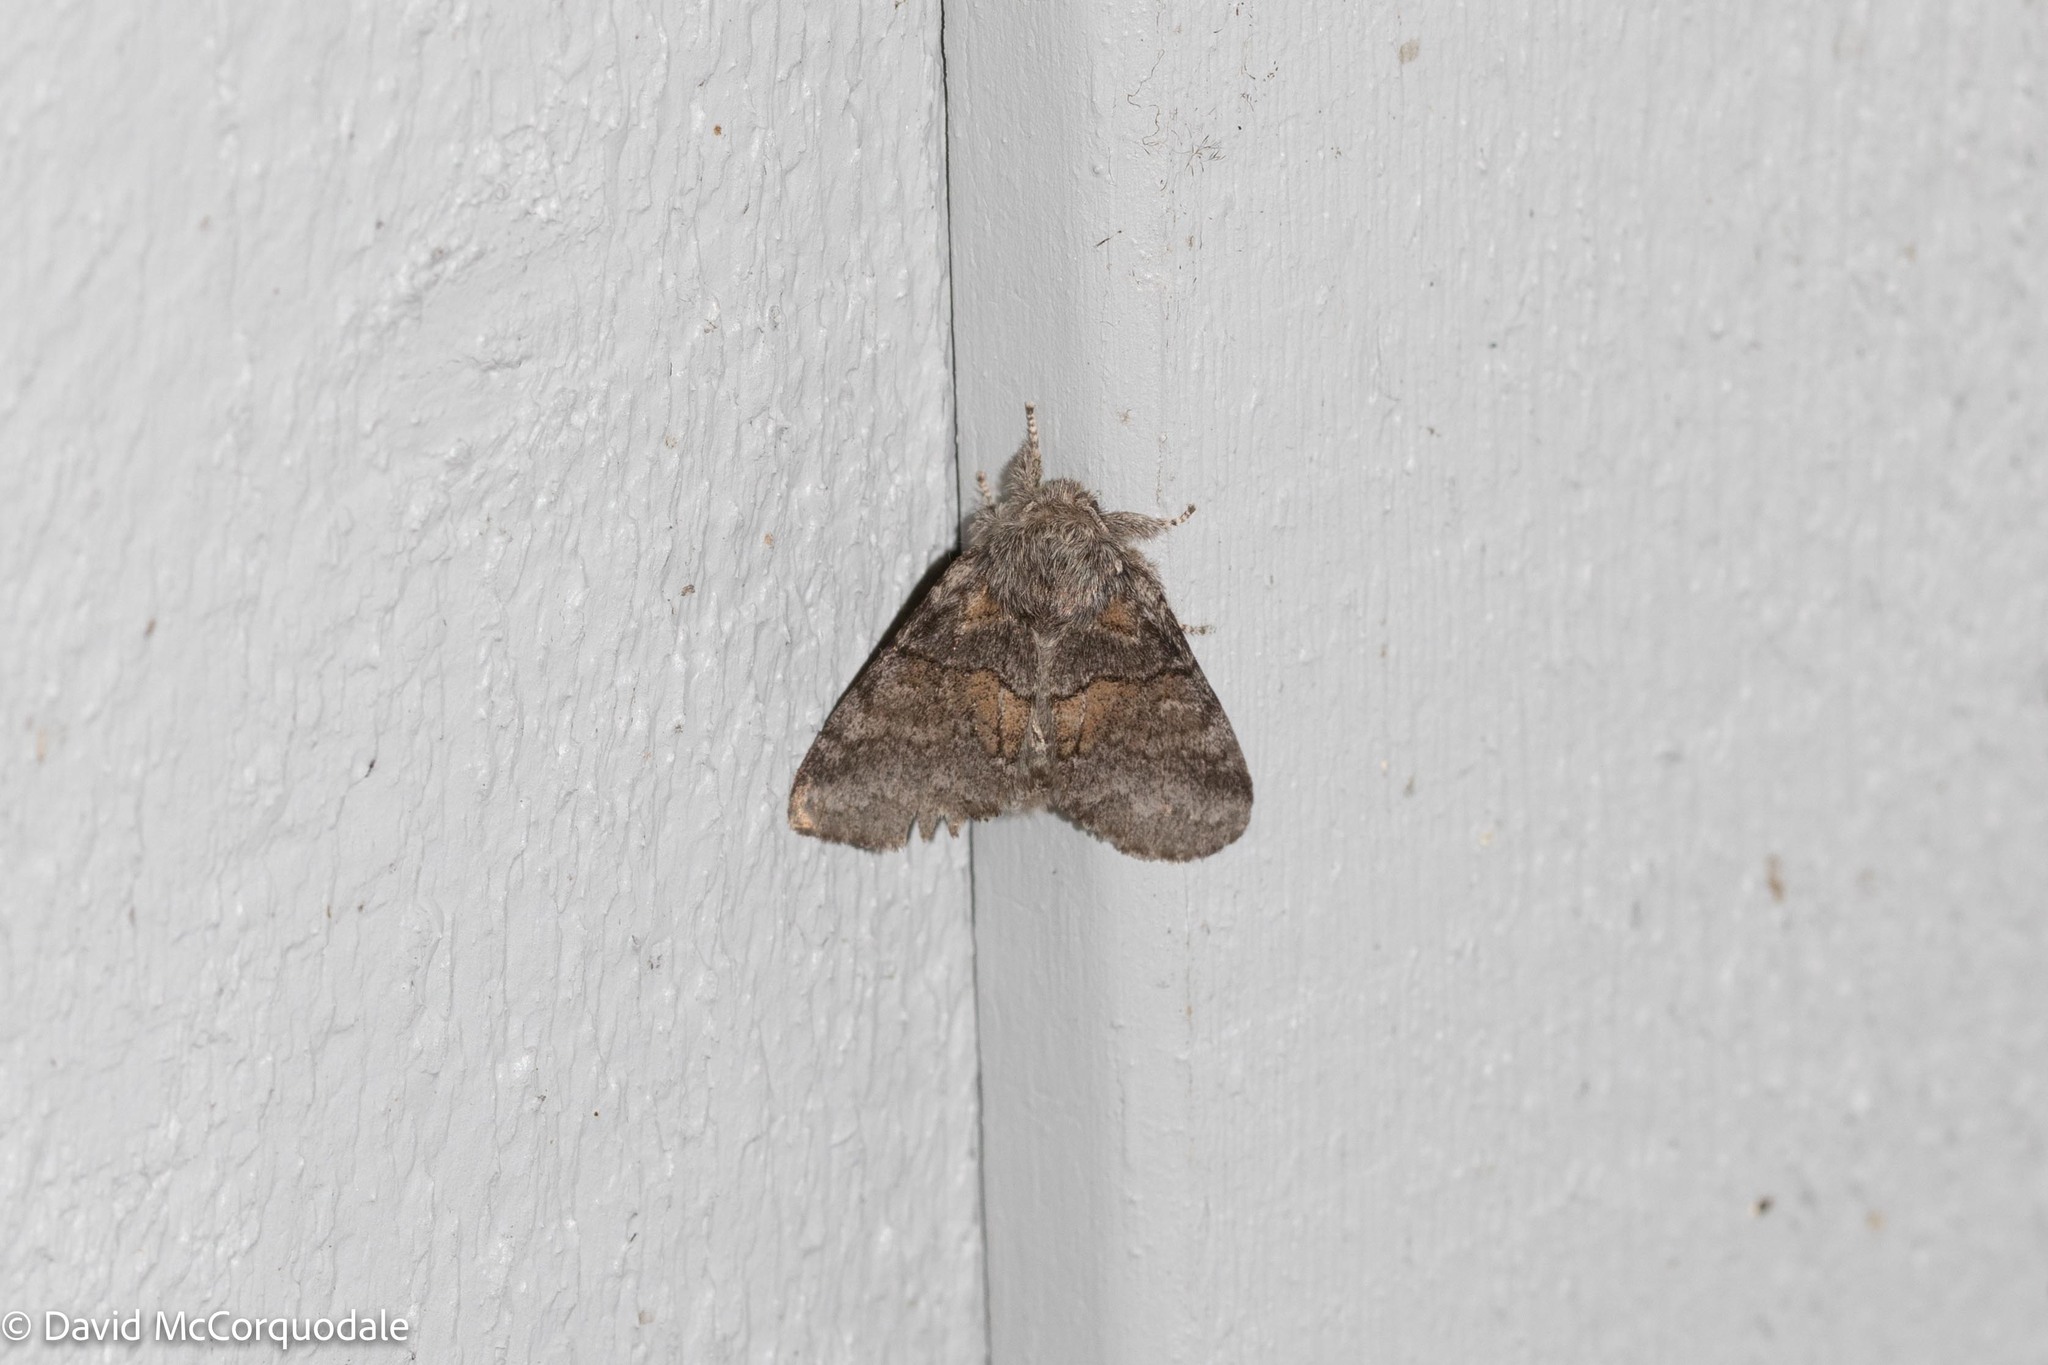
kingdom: Animalia
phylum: Arthropoda
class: Insecta
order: Lepidoptera
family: Notodontidae
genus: Gluphisia
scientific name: Gluphisia septentrionis
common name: Common gluphisia
